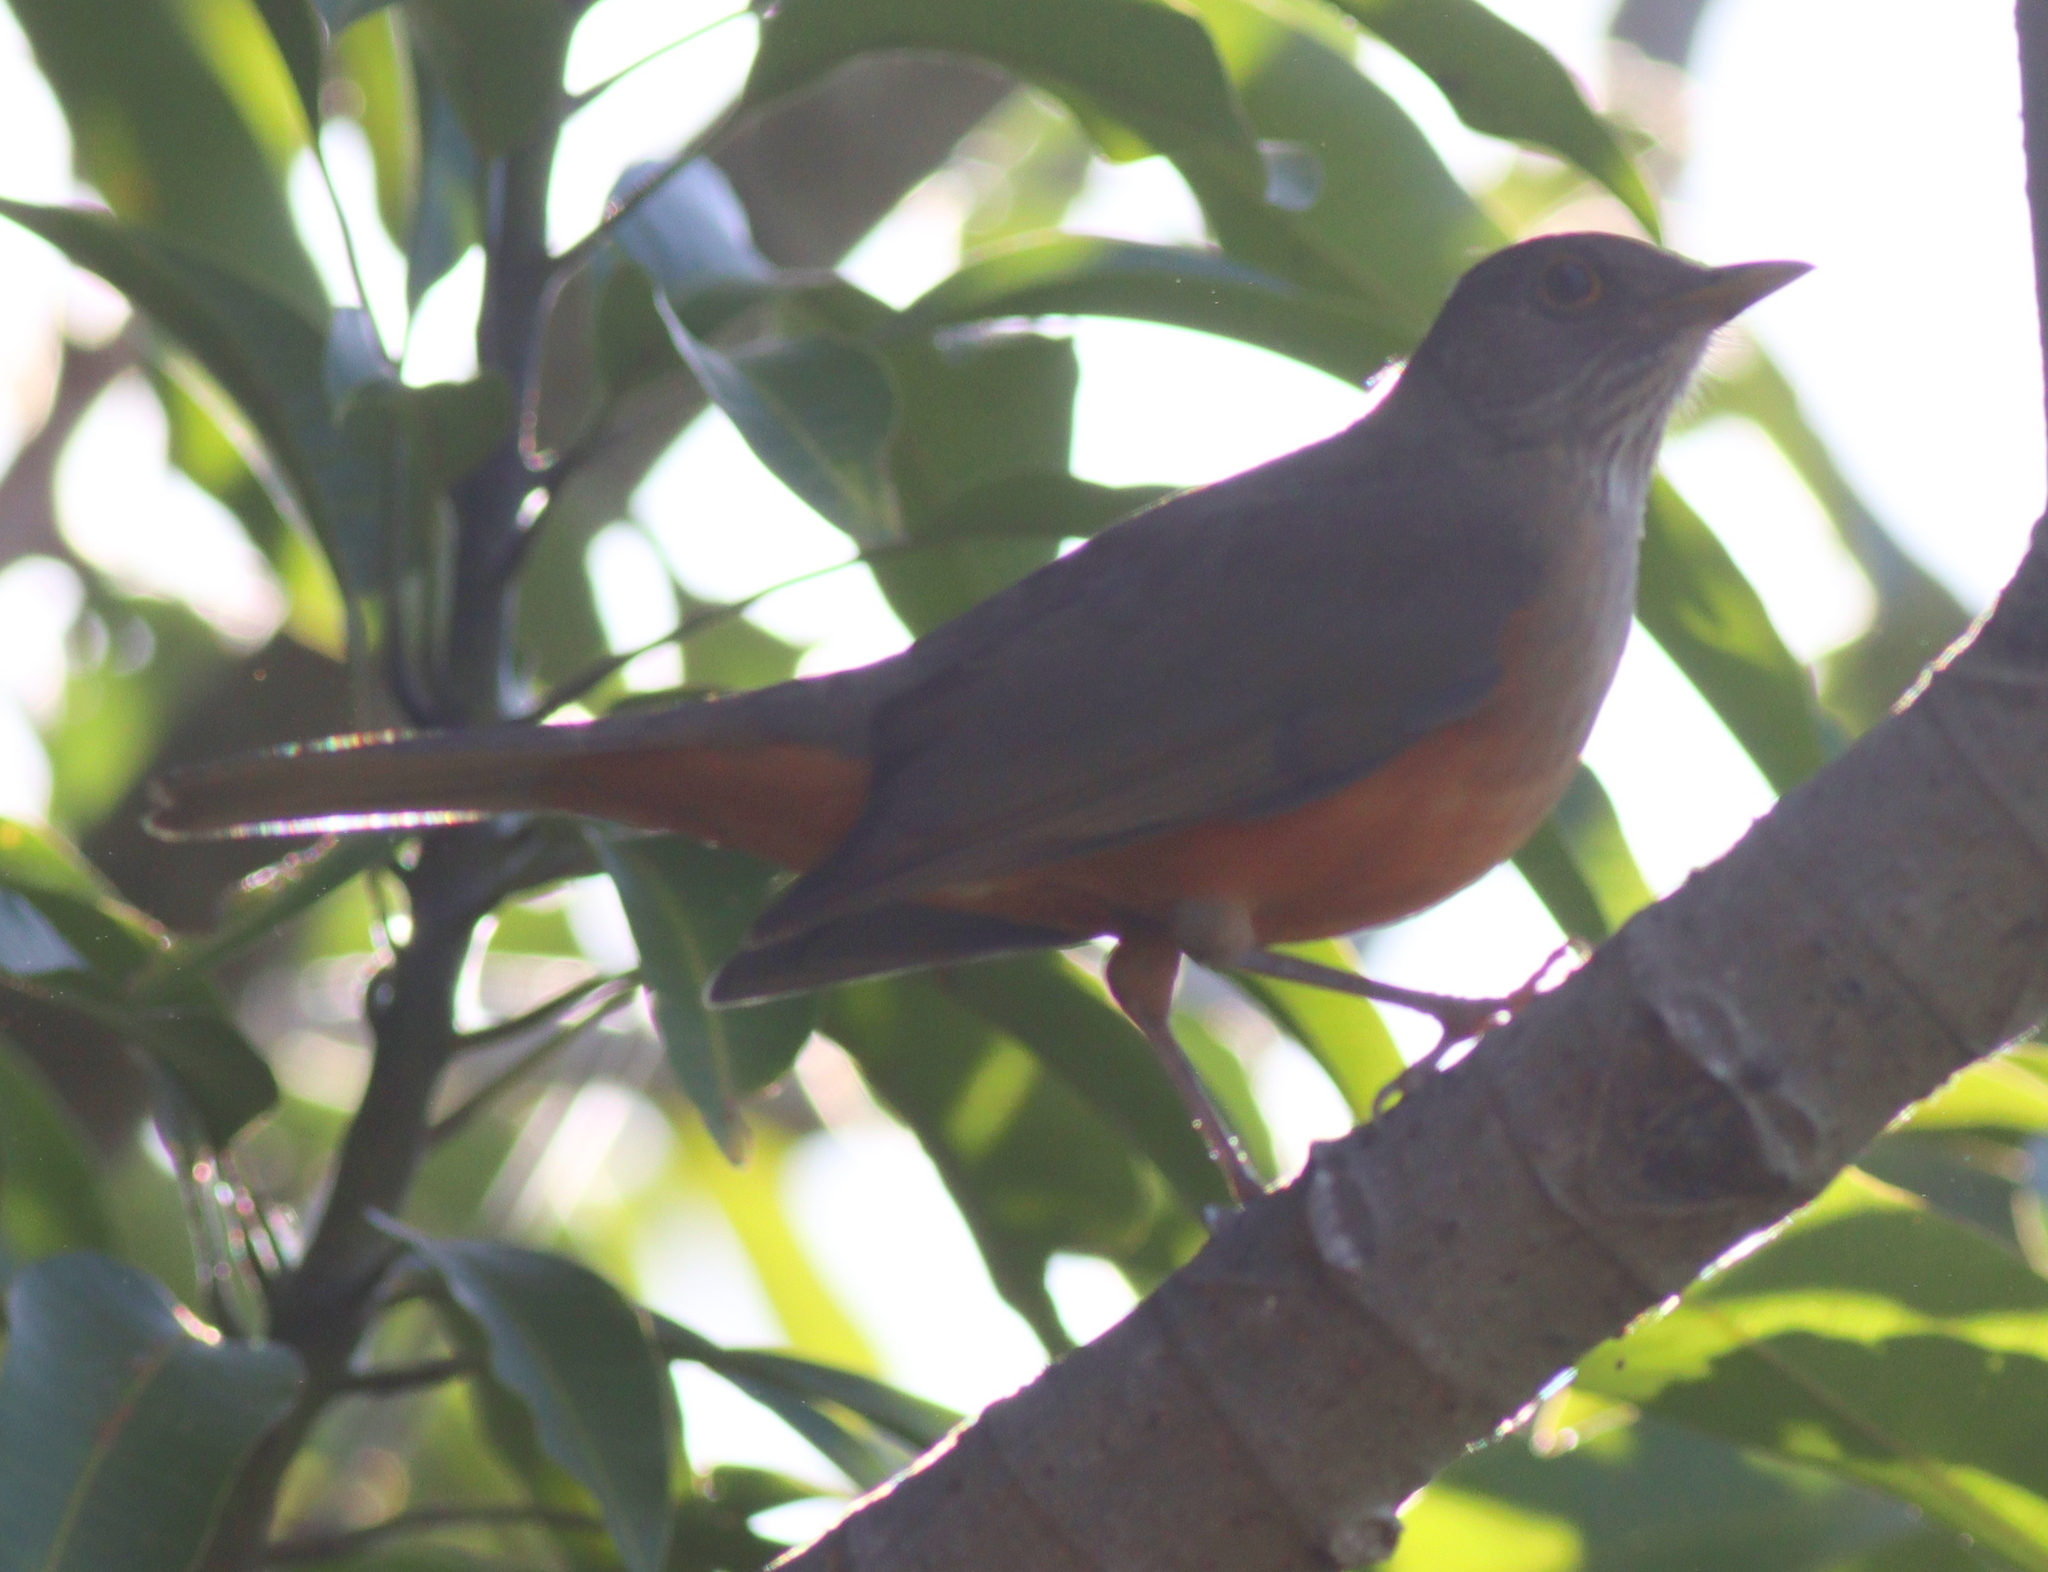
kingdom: Animalia
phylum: Chordata
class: Aves
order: Passeriformes
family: Turdidae
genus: Turdus
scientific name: Turdus rufiventris
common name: Rufous-bellied thrush
